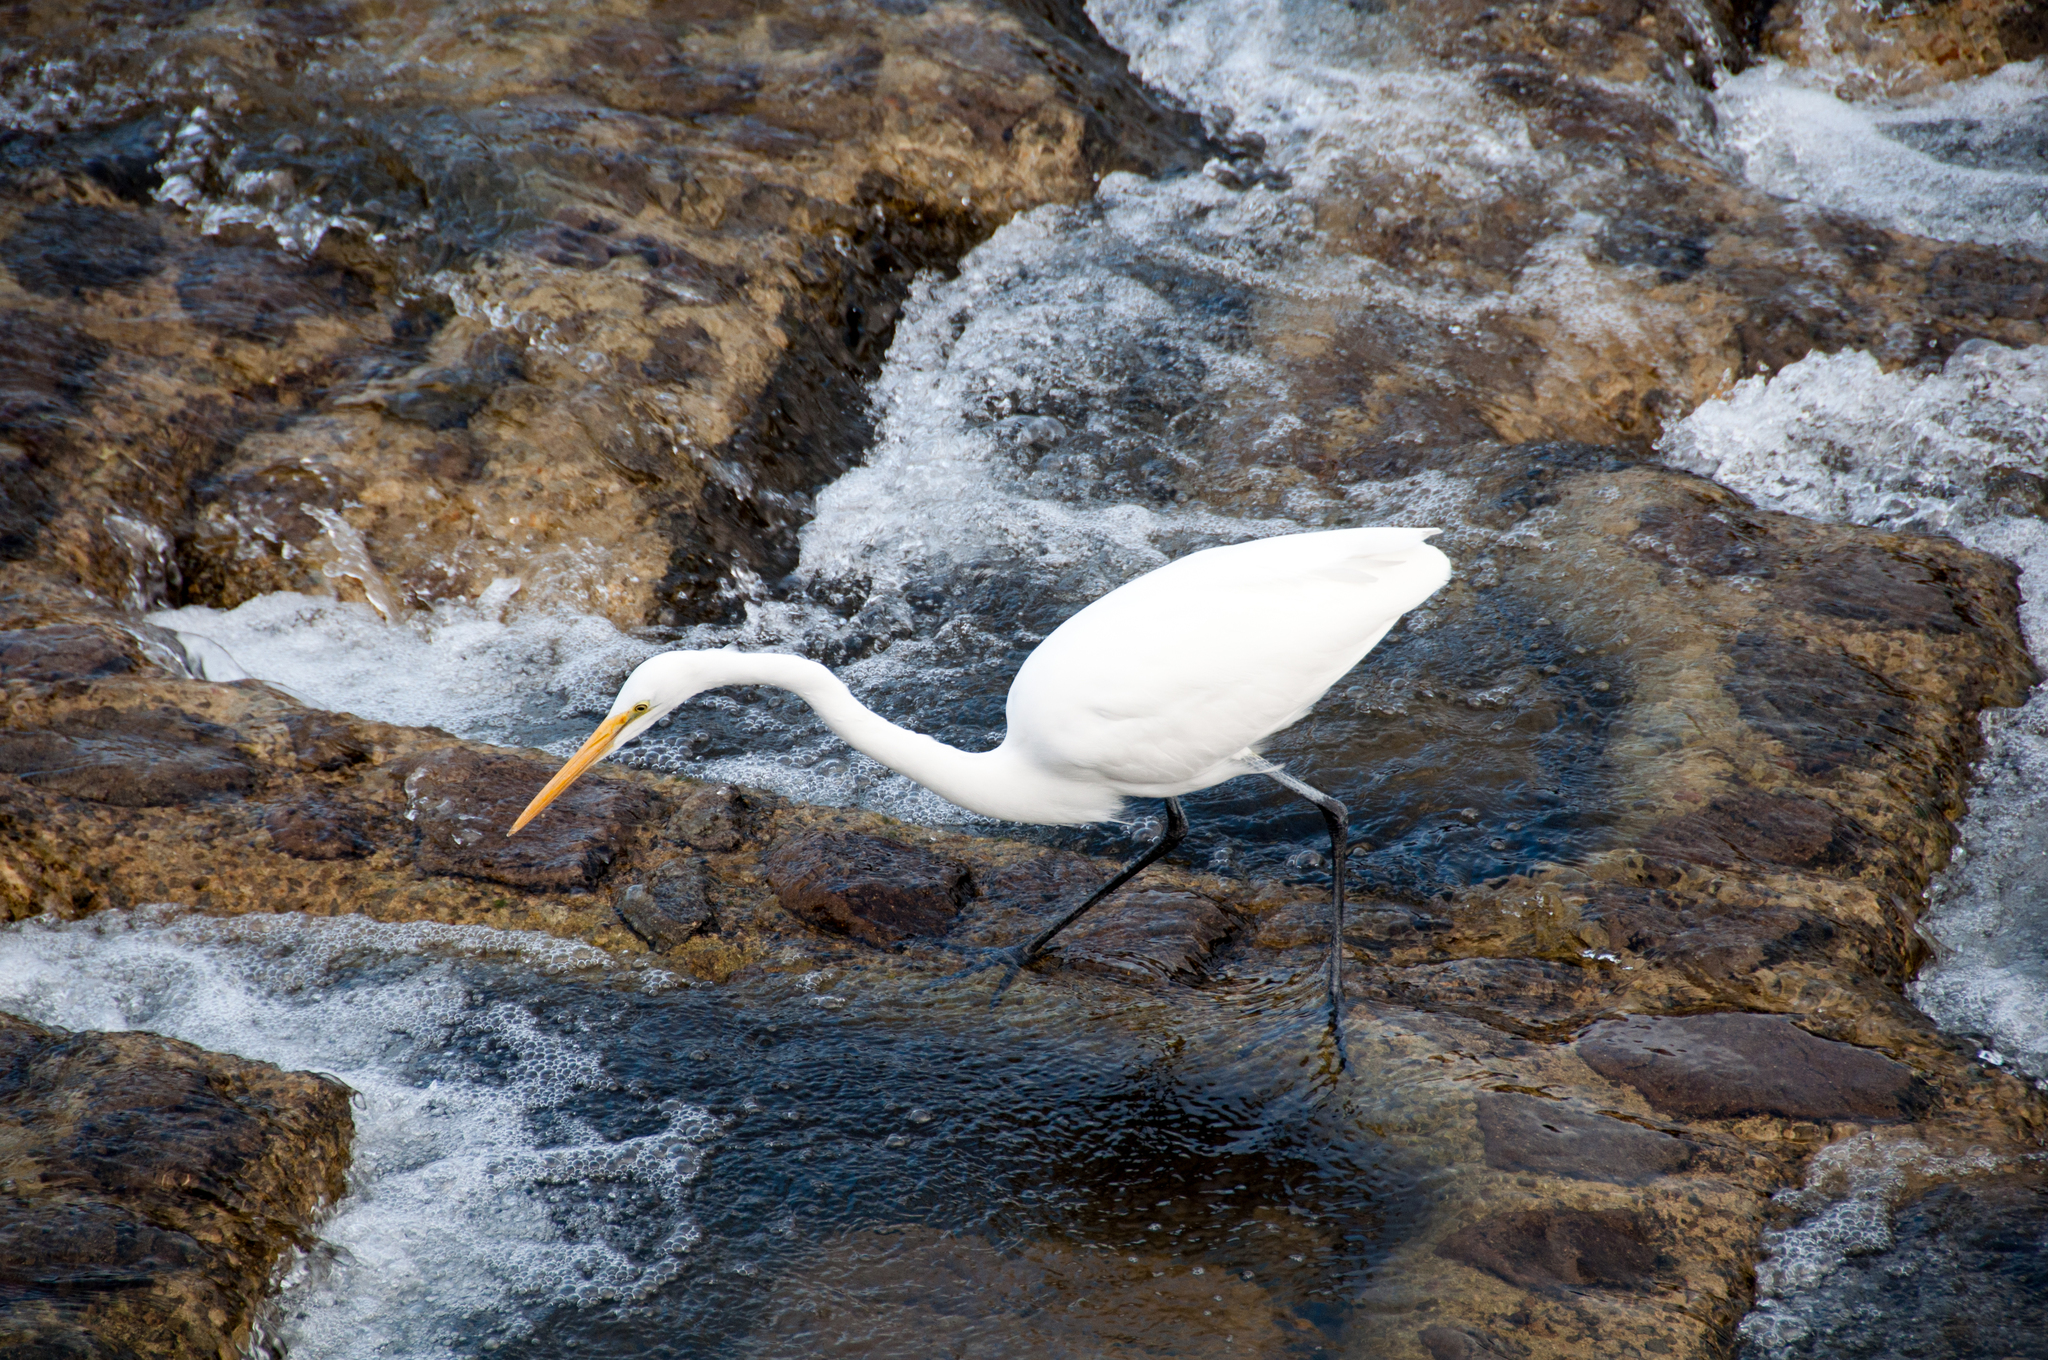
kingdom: Animalia
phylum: Chordata
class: Aves
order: Pelecaniformes
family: Ardeidae
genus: Ardea
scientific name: Ardea alba
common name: Great egret
